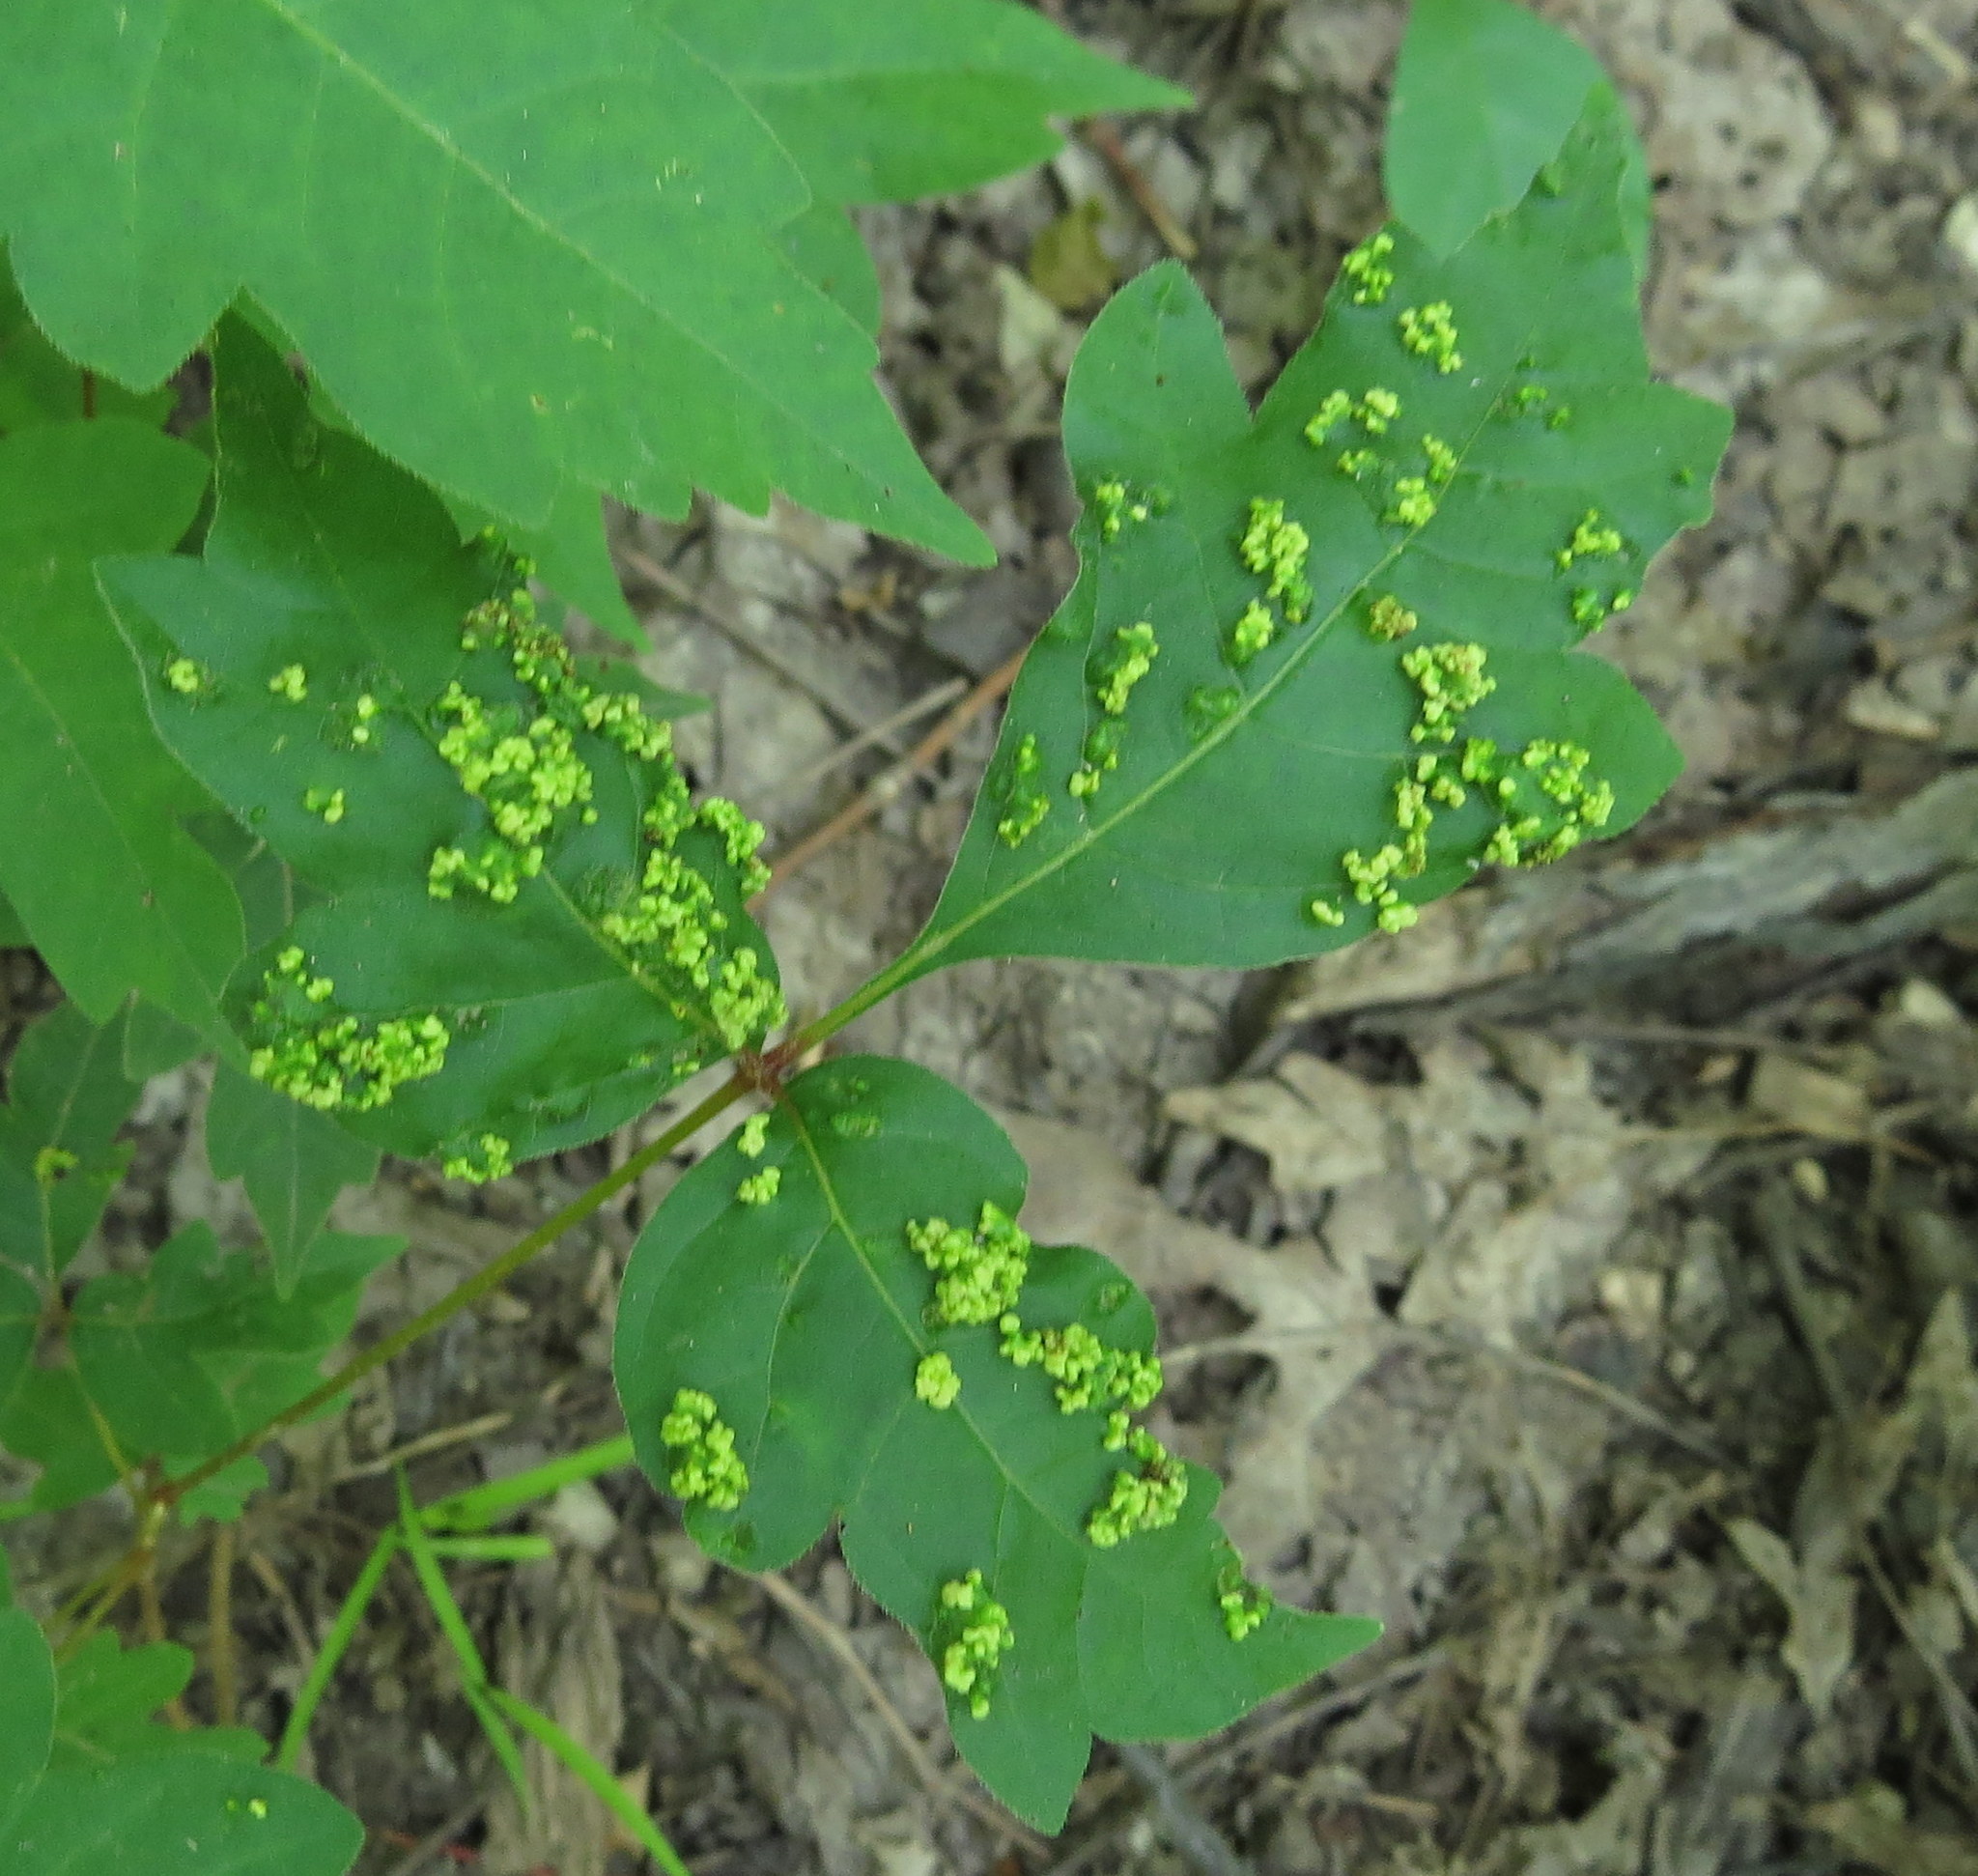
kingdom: Animalia
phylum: Arthropoda
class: Arachnida
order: Trombidiformes
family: Eriophyidae
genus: Aculops
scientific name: Aculops
